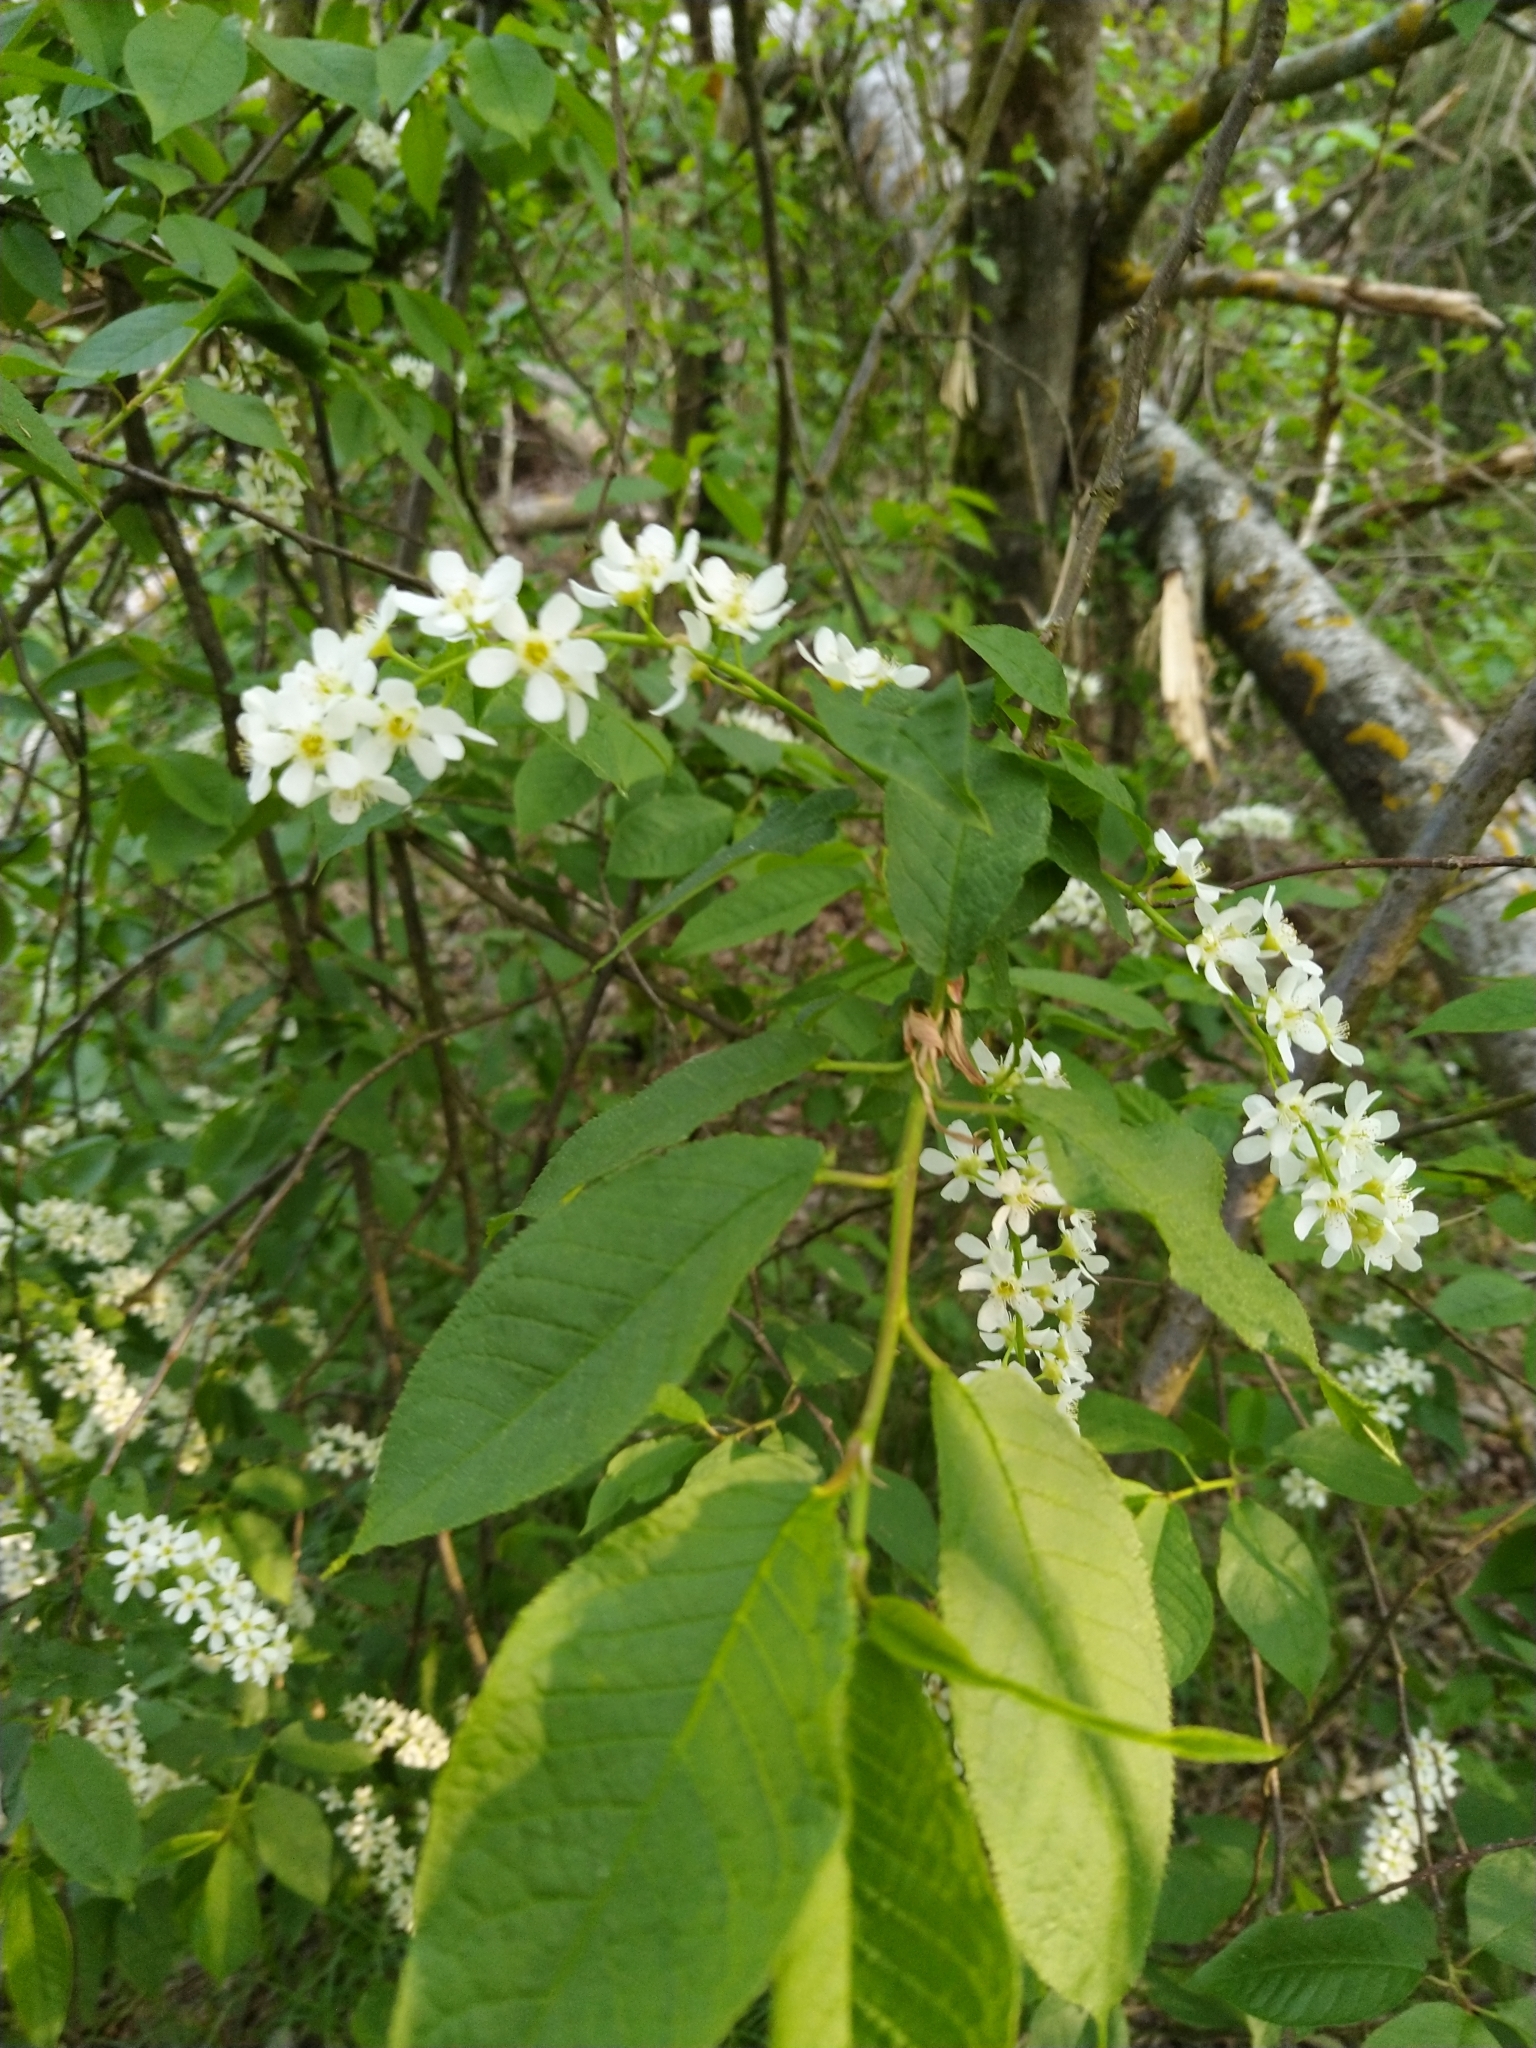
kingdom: Plantae
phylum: Tracheophyta
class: Magnoliopsida
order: Rosales
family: Rosaceae
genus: Prunus
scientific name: Prunus padus
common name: Bird cherry
